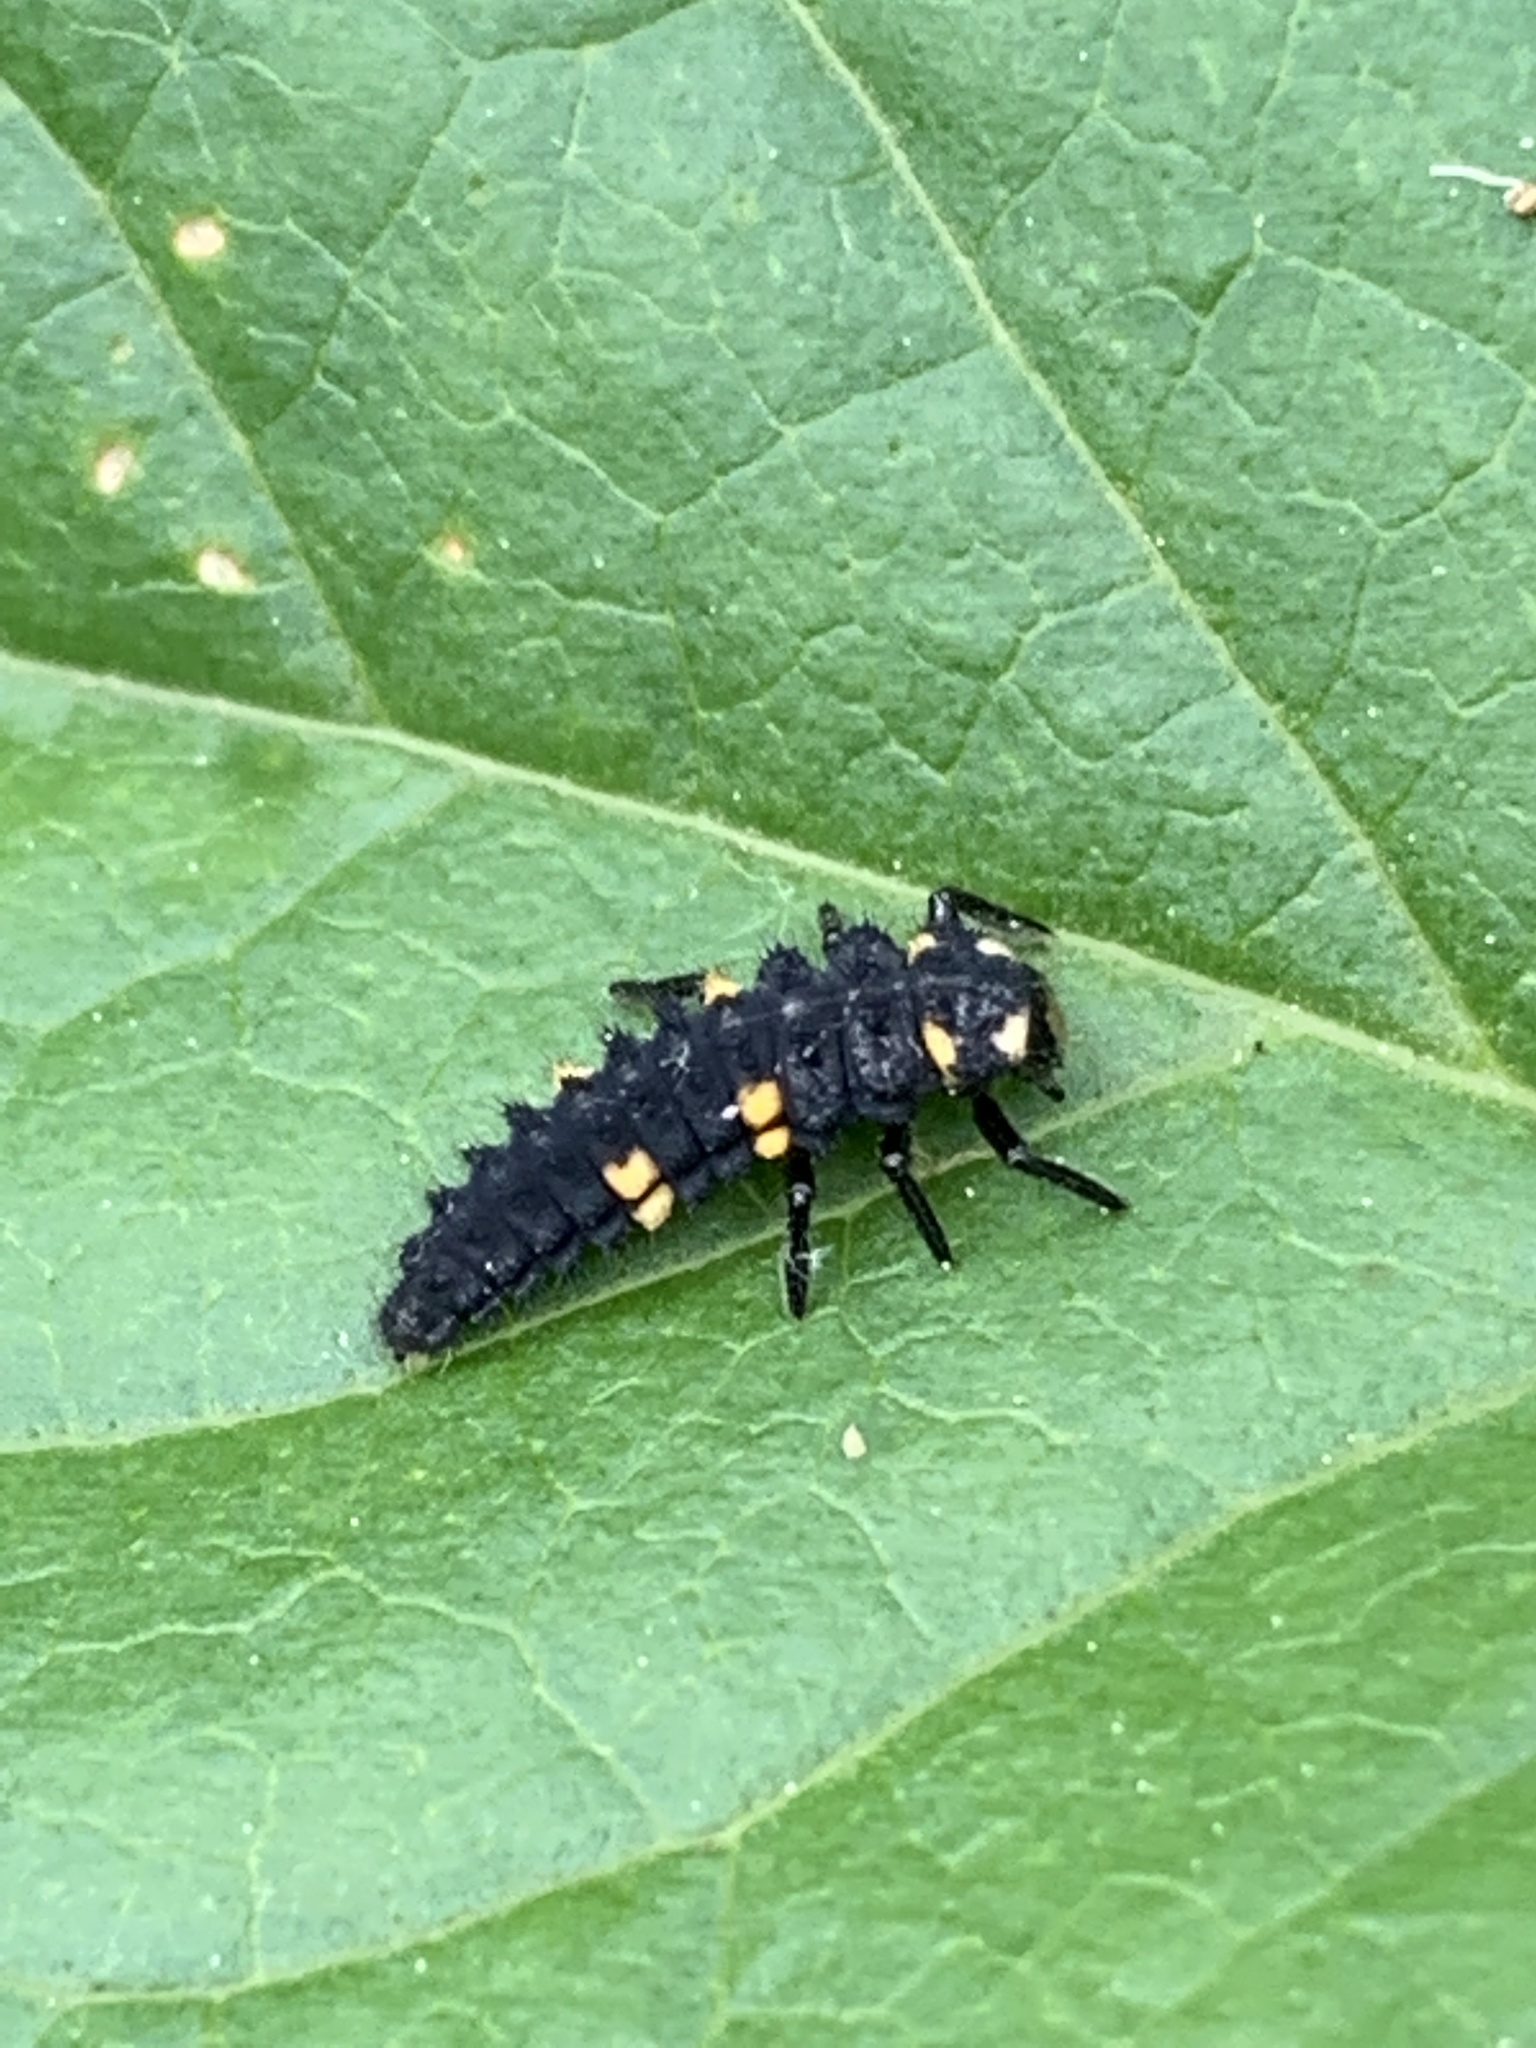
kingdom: Animalia
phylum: Arthropoda
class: Insecta
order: Coleoptera
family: Coccinellidae
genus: Coccinella
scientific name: Coccinella septempunctata
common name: Sevenspotted lady beetle
